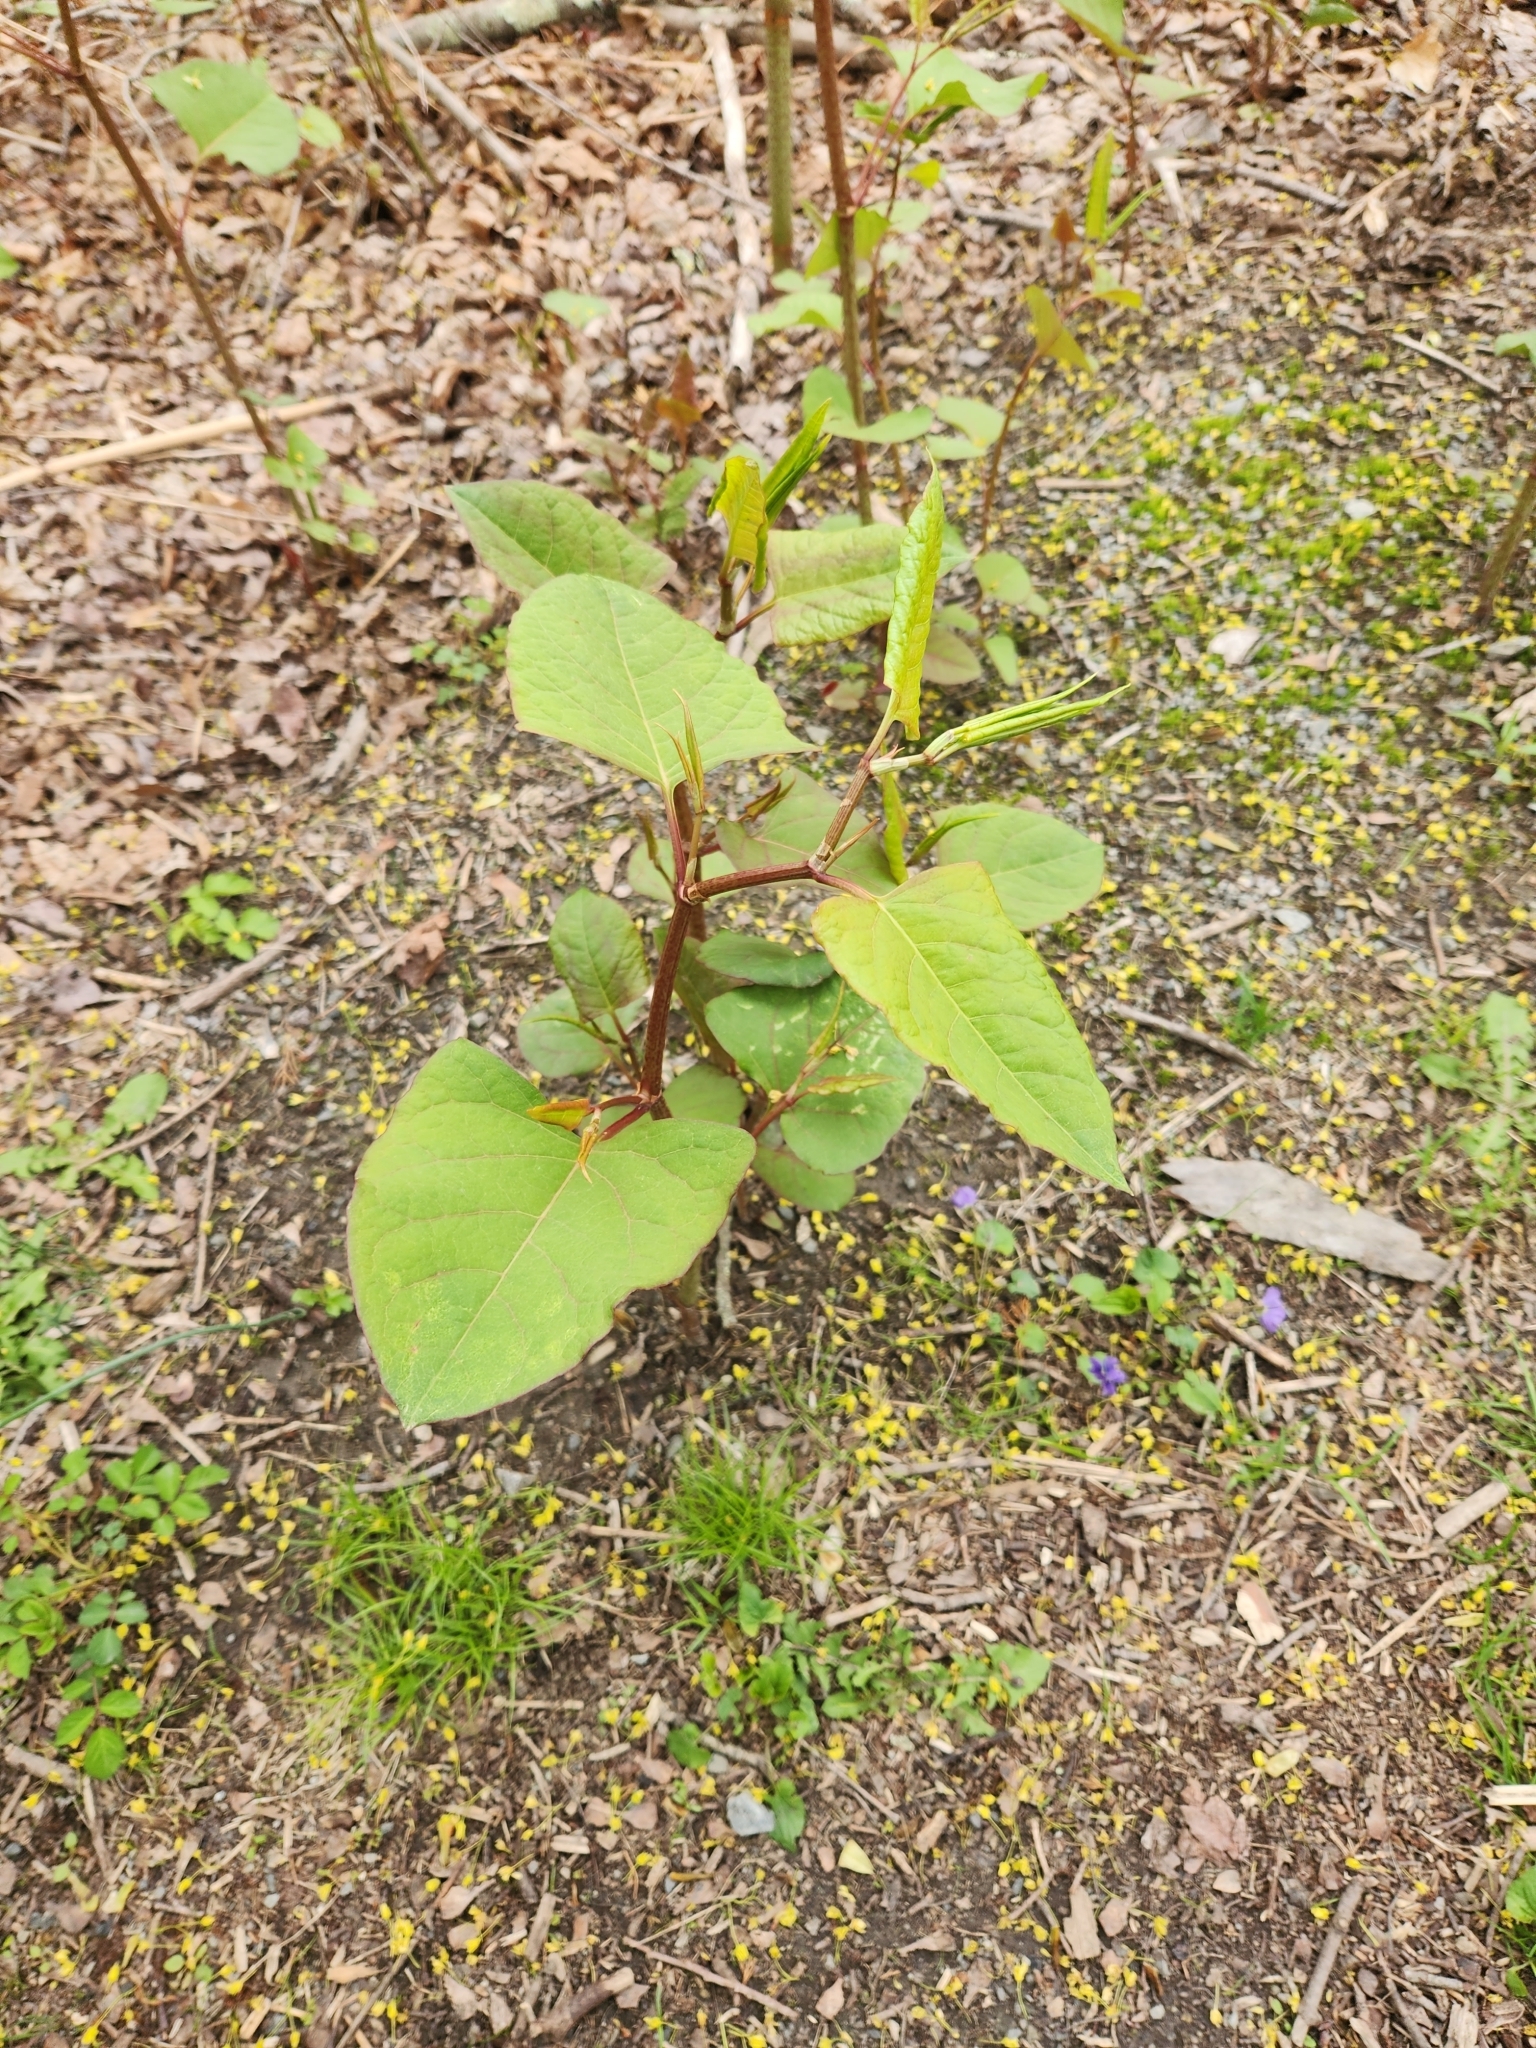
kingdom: Plantae
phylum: Tracheophyta
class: Magnoliopsida
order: Caryophyllales
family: Polygonaceae
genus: Reynoutria
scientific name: Reynoutria japonica
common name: Japanese knotweed
